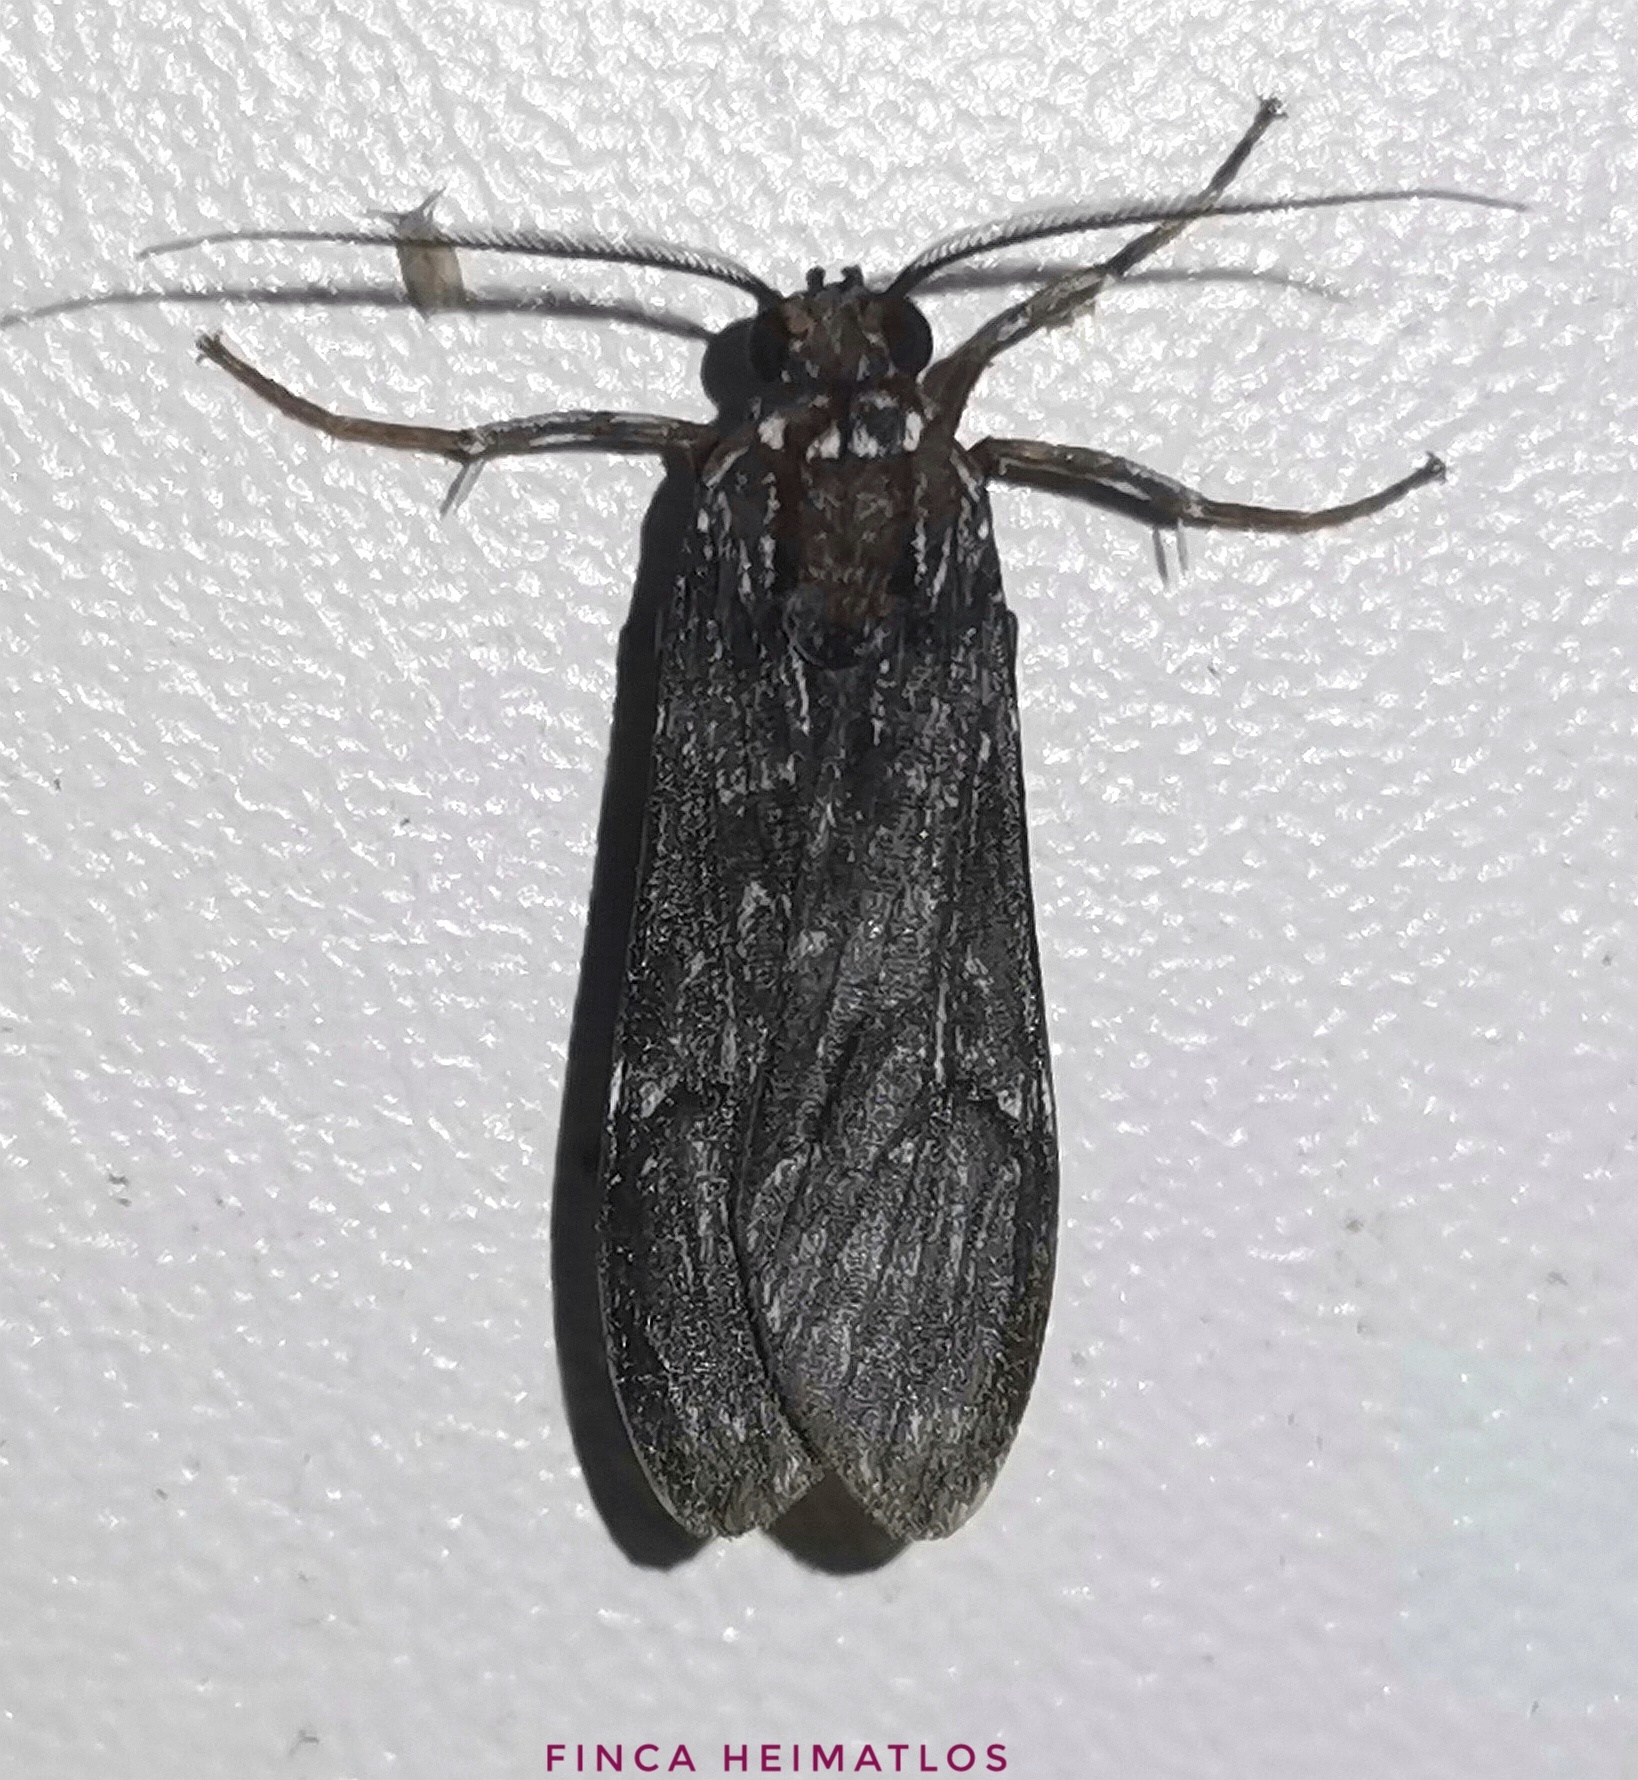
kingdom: Animalia
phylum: Arthropoda
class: Insecta
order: Lepidoptera
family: Erebidae
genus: Eucereon
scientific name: Eucereon obscura
